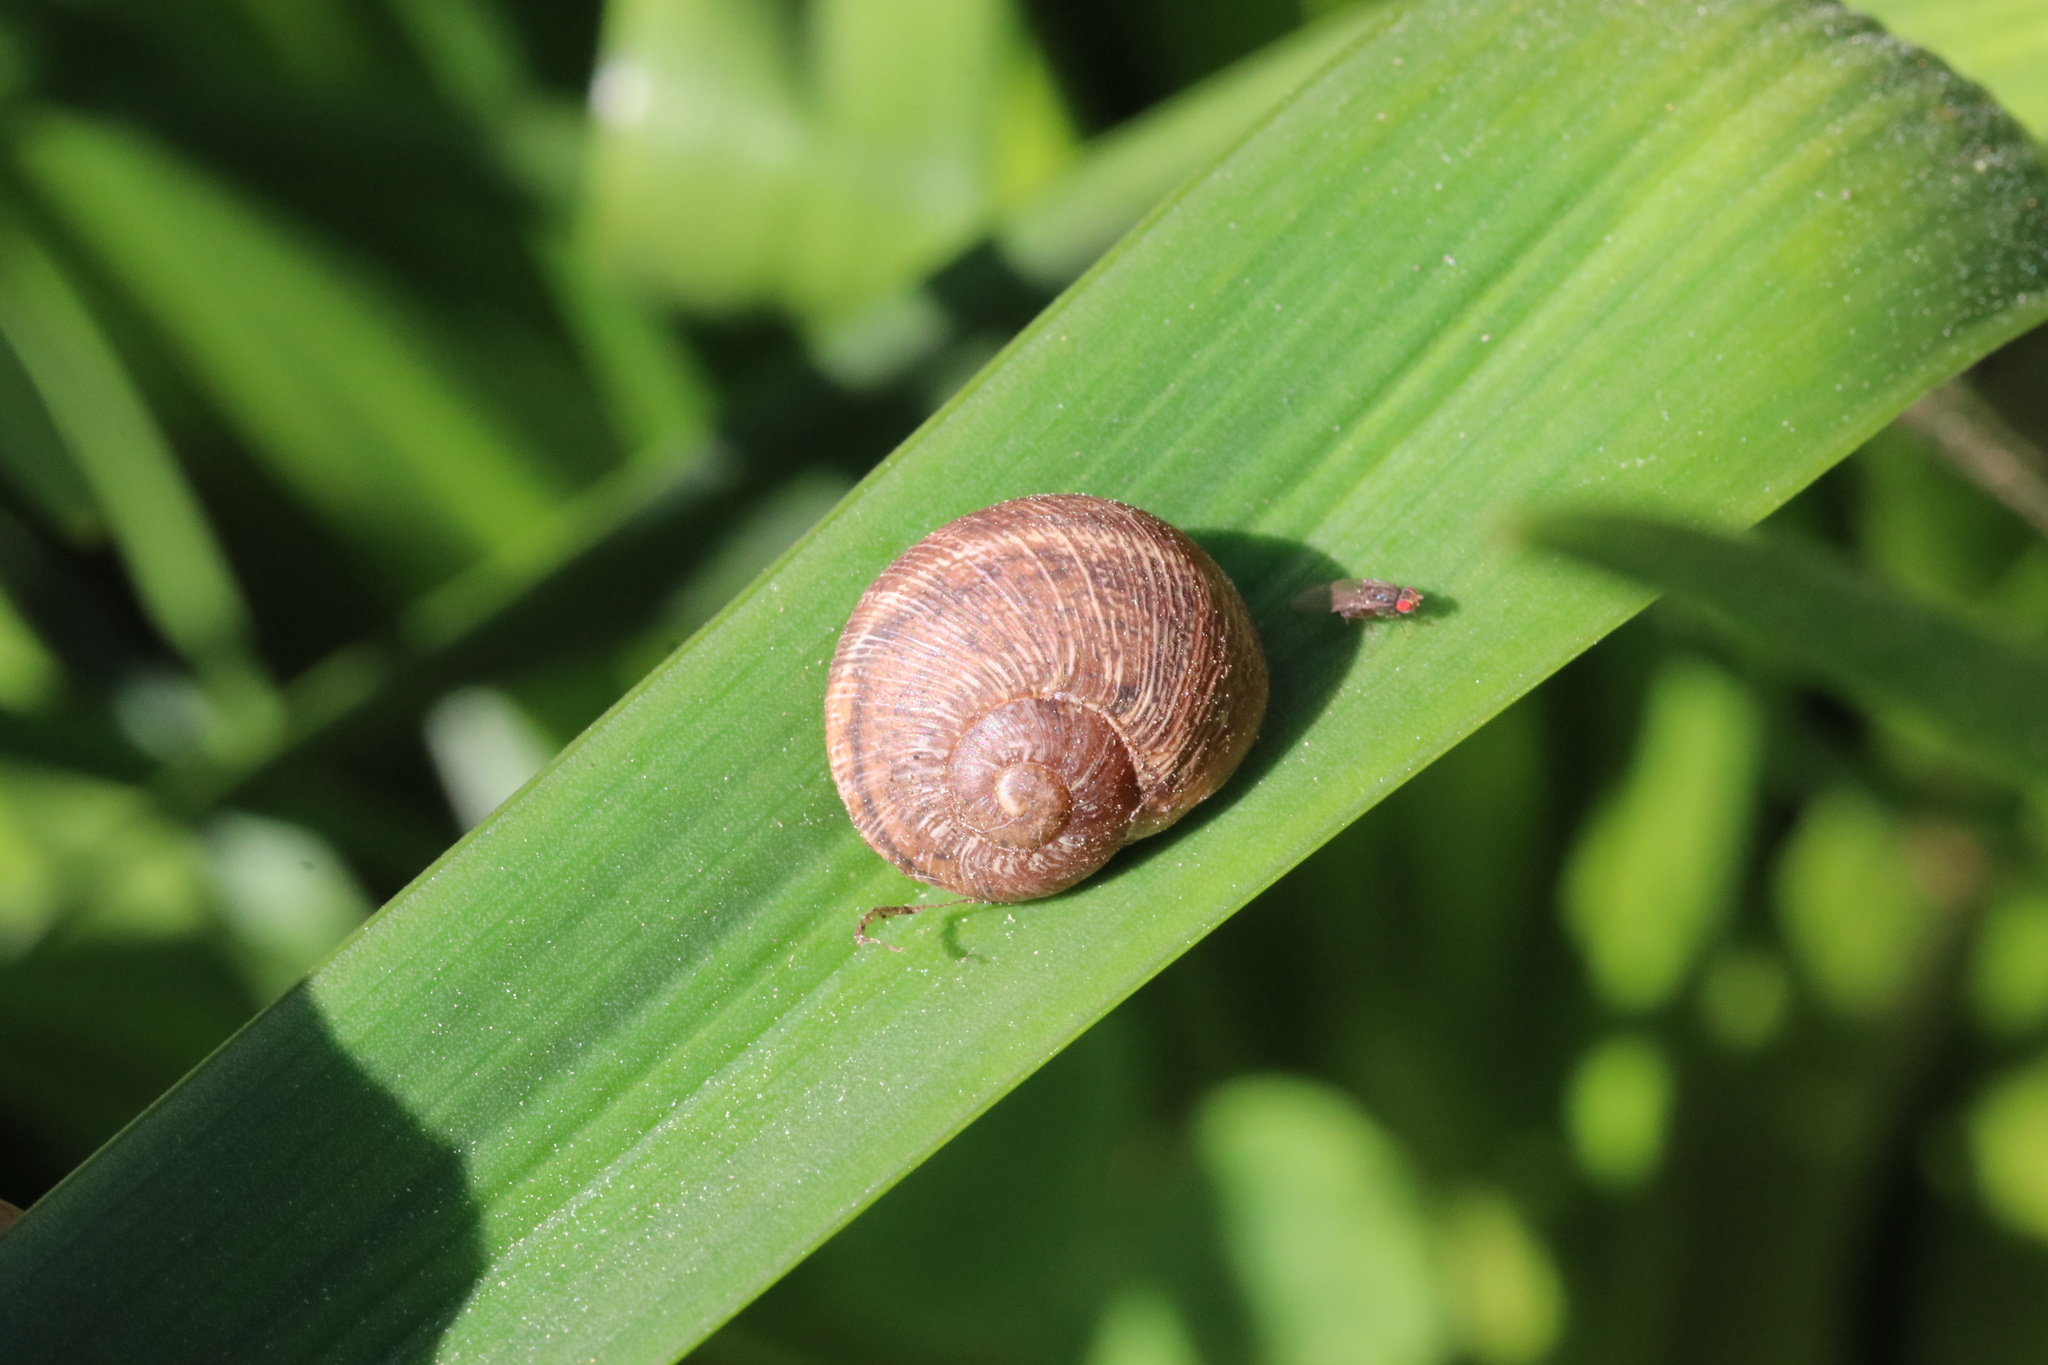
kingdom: Animalia
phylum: Mollusca
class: Gastropoda
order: Stylommatophora
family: Helicidae
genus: Cornu
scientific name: Cornu aspersum
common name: Brown garden snail
